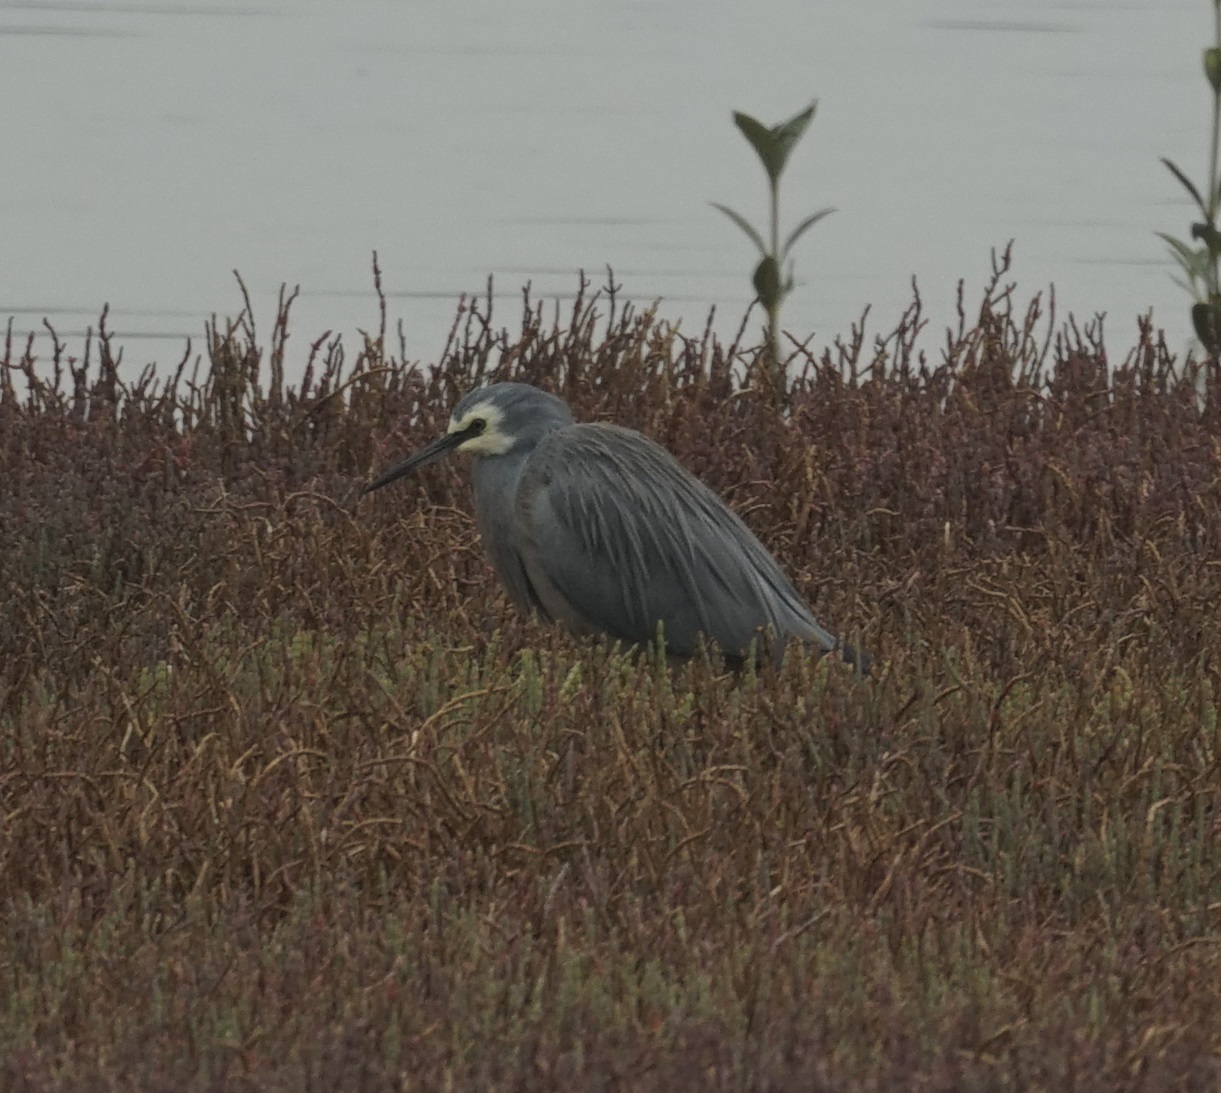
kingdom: Animalia
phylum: Chordata
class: Aves
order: Pelecaniformes
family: Ardeidae
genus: Egretta
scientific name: Egretta novaehollandiae
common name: White-faced heron
